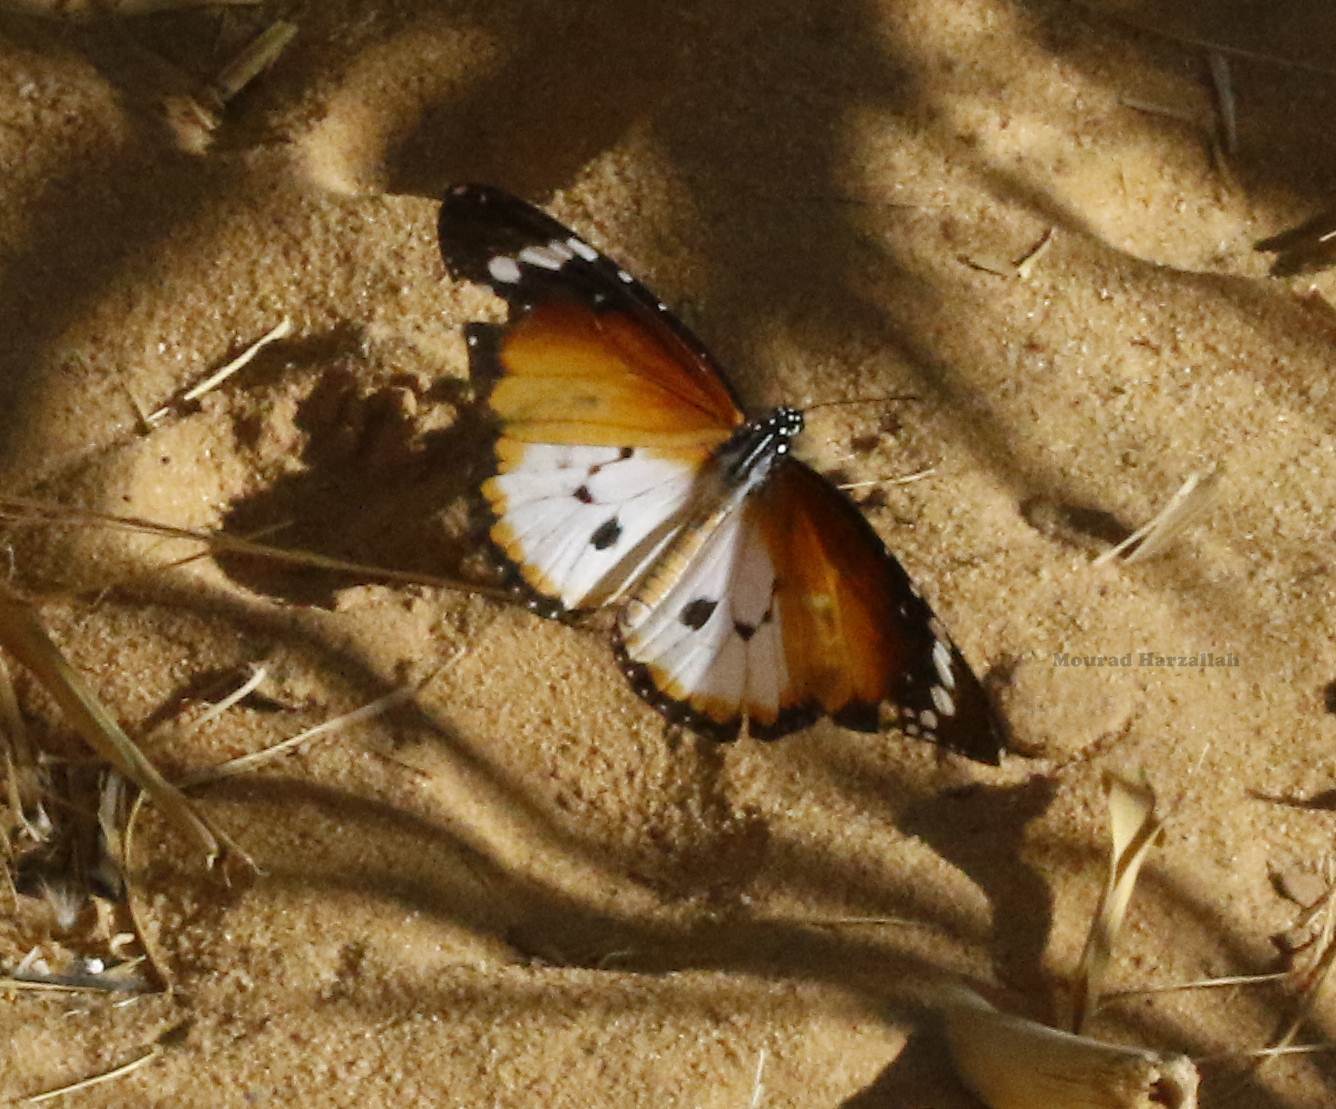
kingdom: Animalia
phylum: Arthropoda
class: Insecta
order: Lepidoptera
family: Nymphalidae
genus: Danaus
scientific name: Danaus chrysippus
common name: Plain tiger
